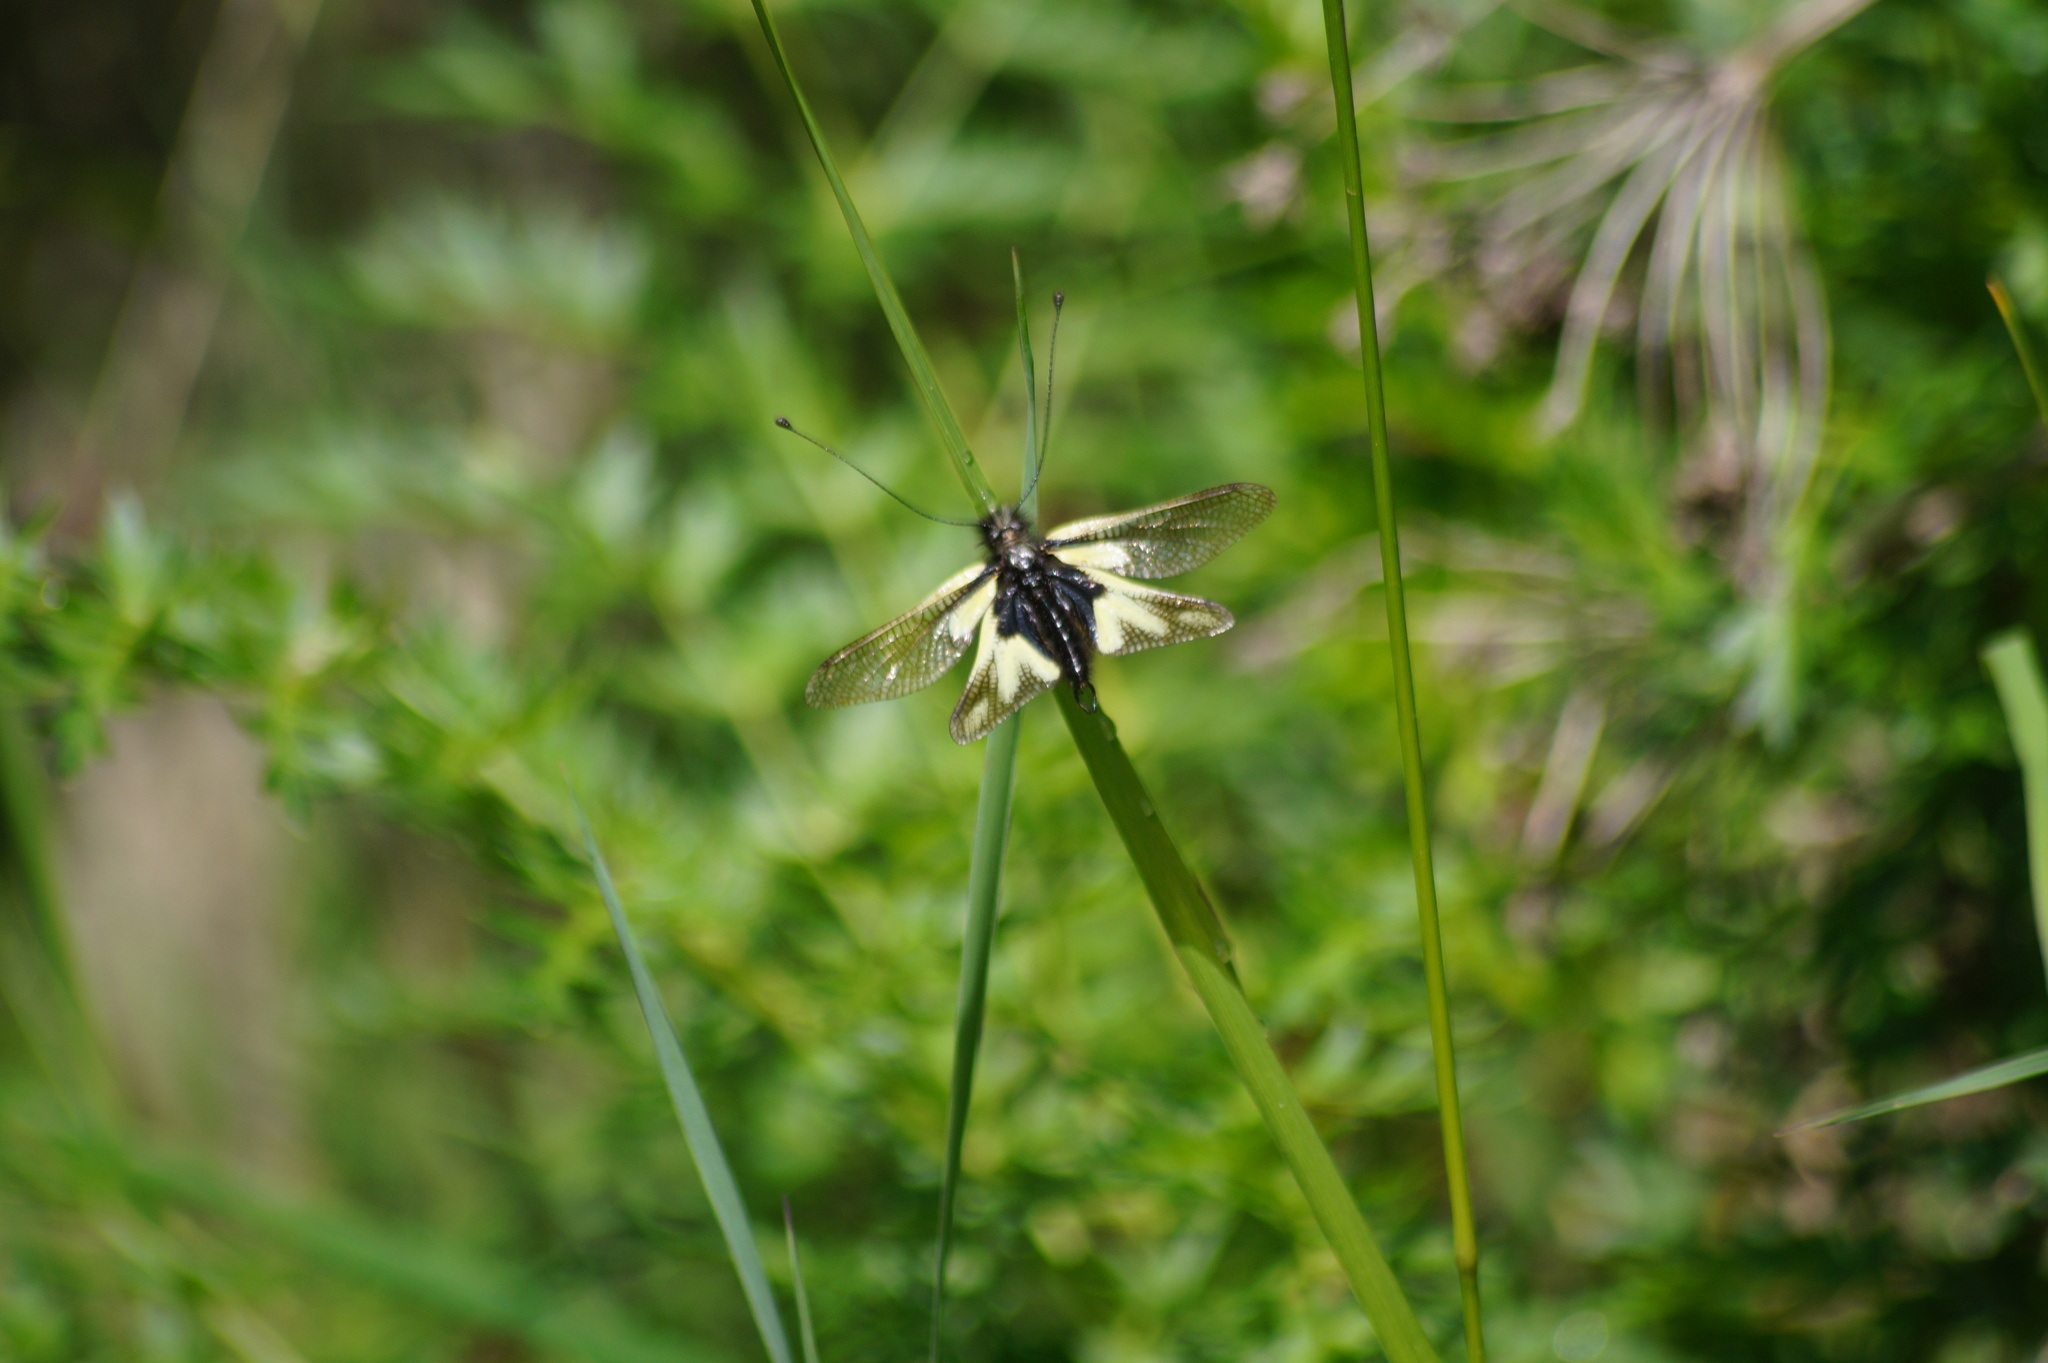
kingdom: Animalia
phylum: Arthropoda
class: Insecta
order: Neuroptera
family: Ascalaphidae
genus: Libelloides
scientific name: Libelloides coccajus
